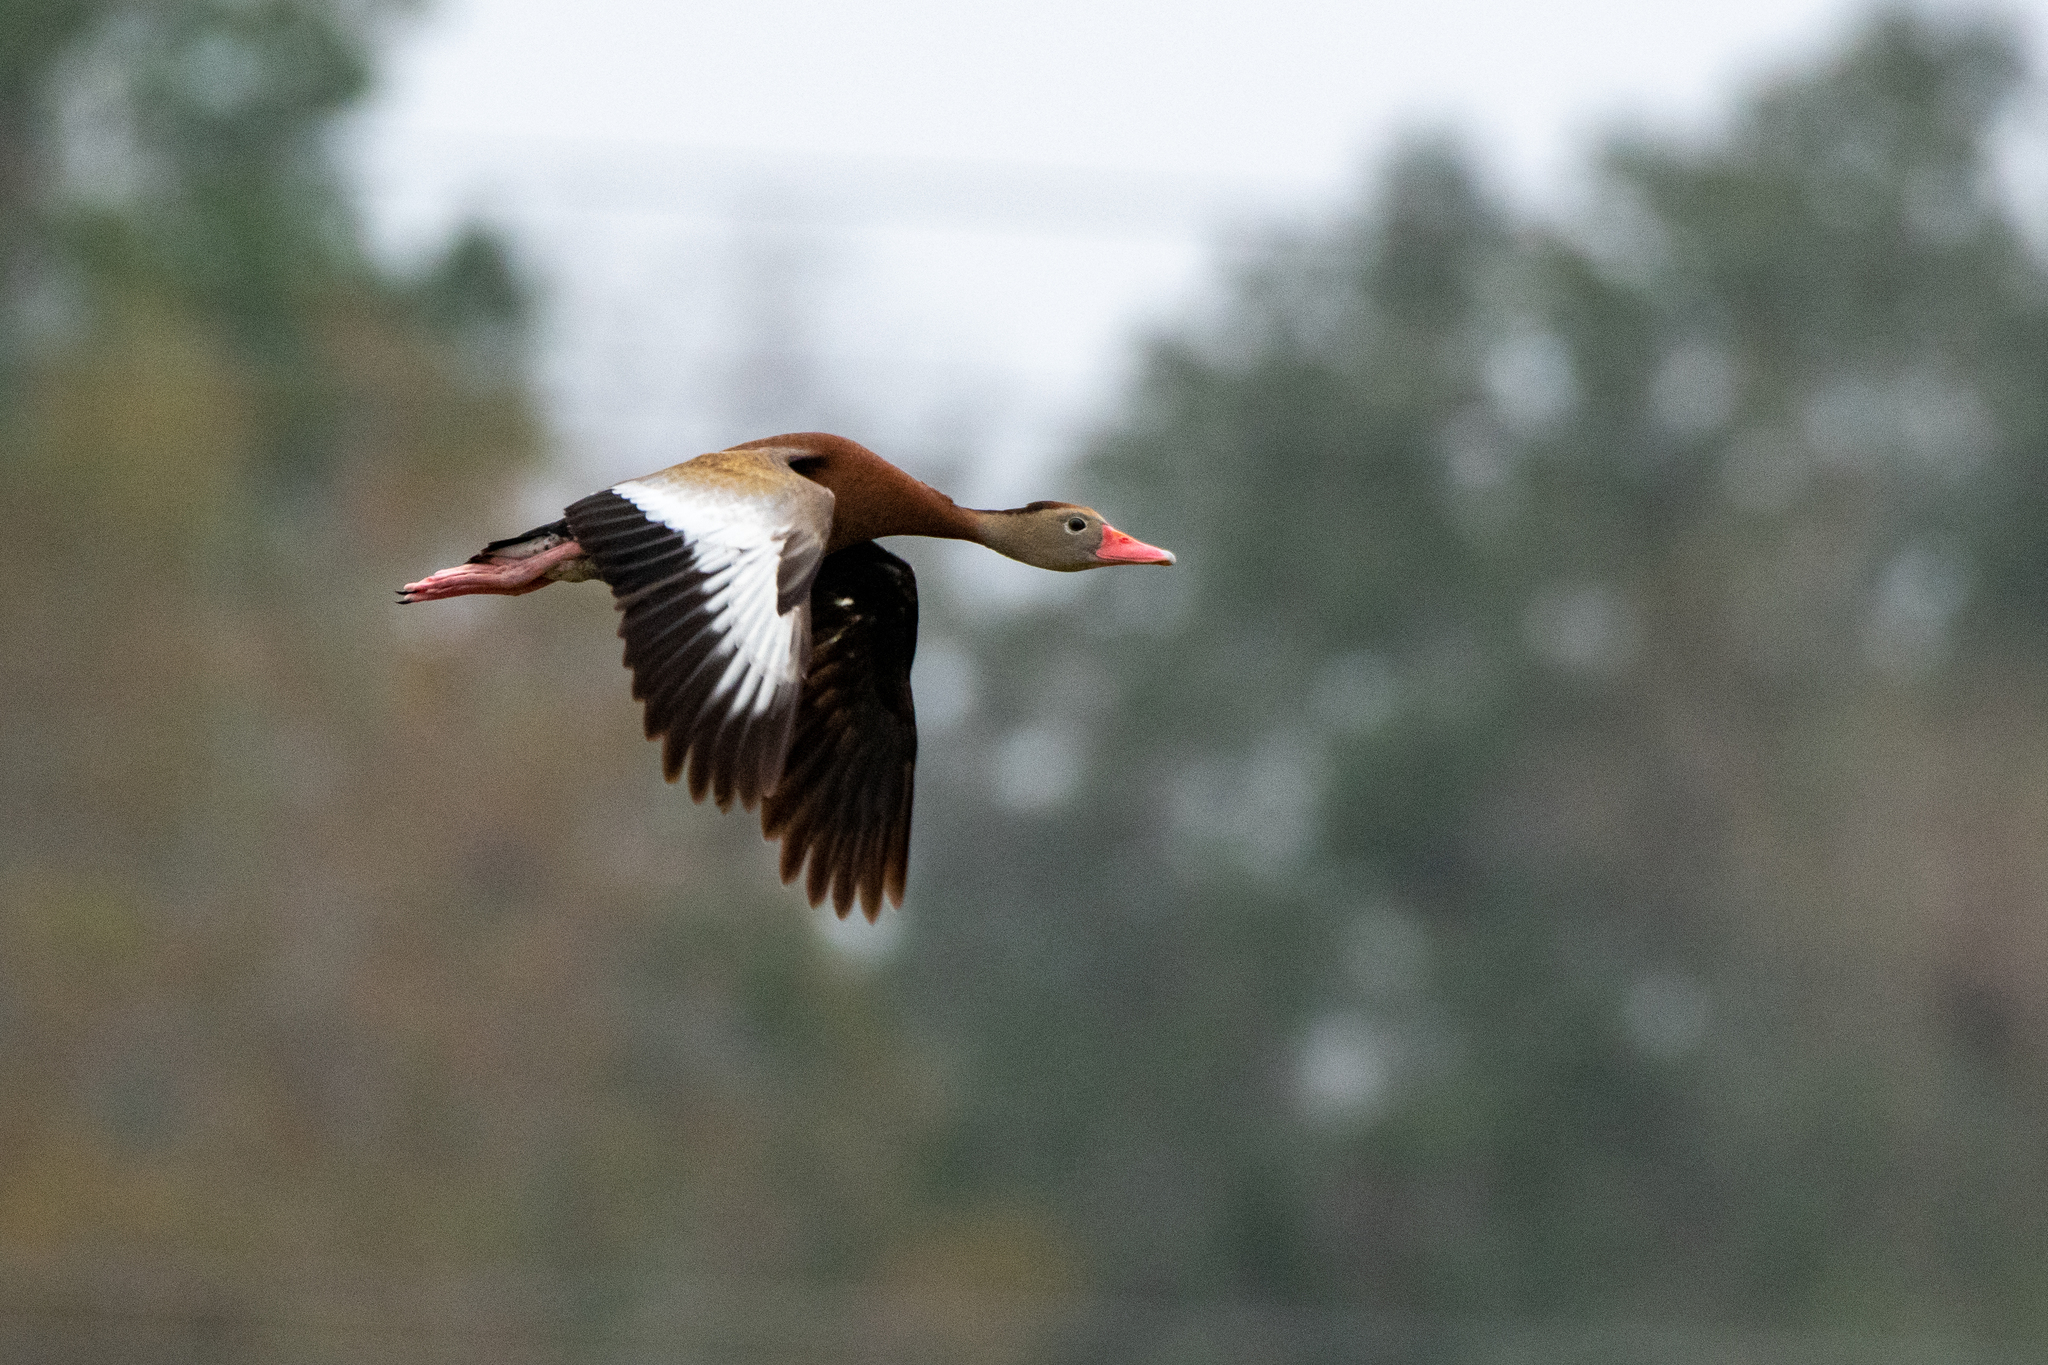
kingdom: Animalia
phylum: Chordata
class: Aves
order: Anseriformes
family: Anatidae
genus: Dendrocygna
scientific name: Dendrocygna autumnalis
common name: Black-bellied whistling duck
